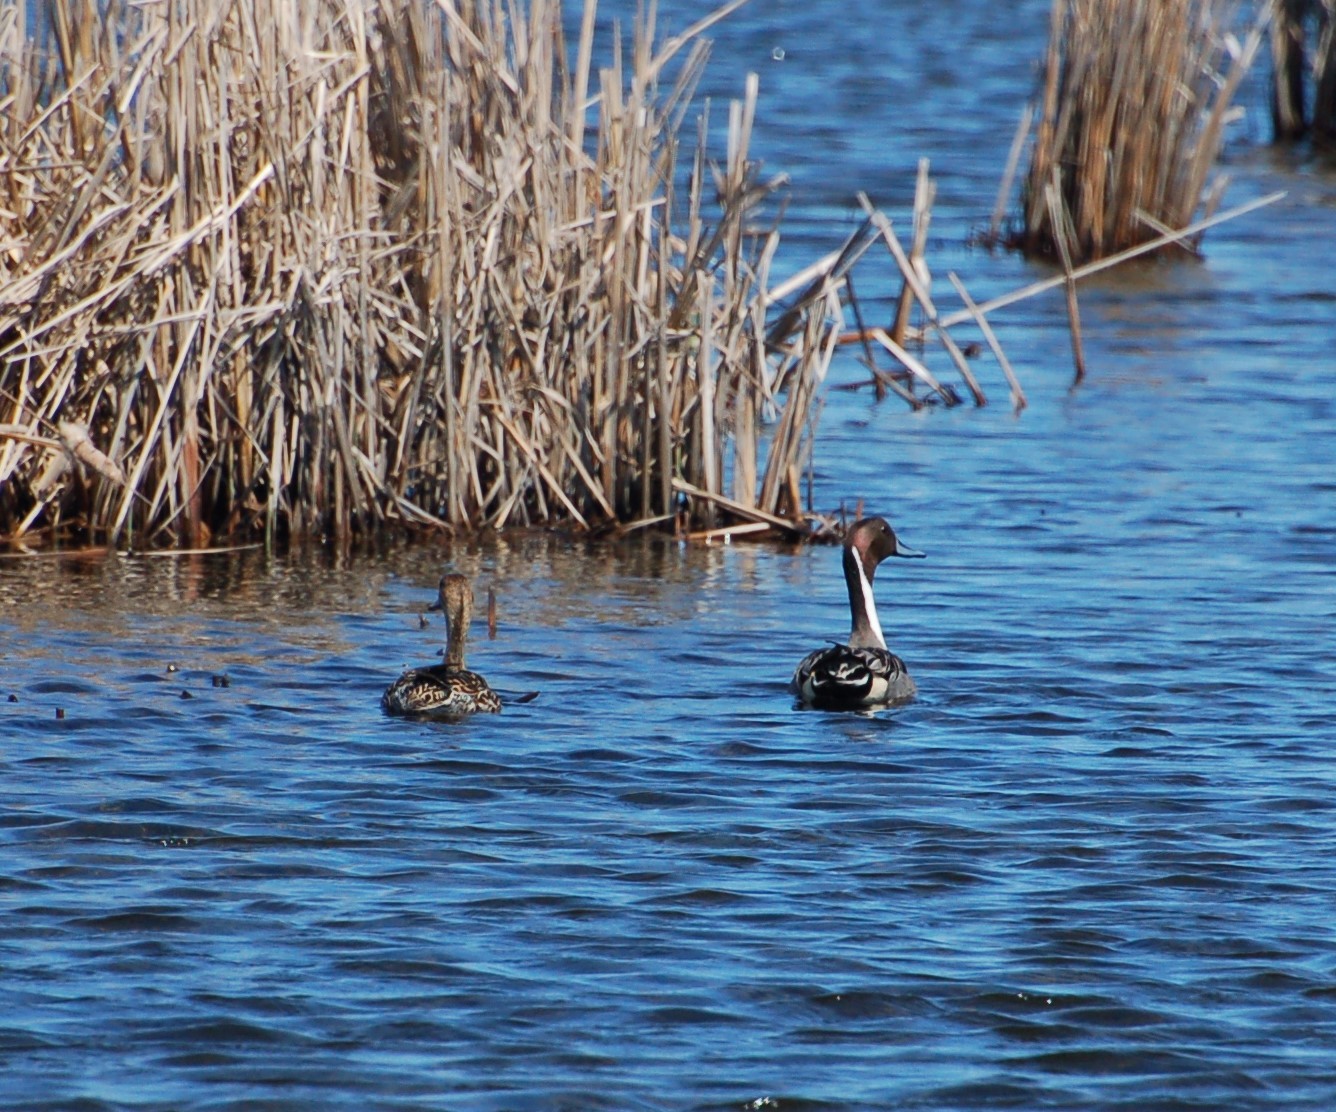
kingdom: Animalia
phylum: Chordata
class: Aves
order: Anseriformes
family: Anatidae
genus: Anas
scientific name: Anas acuta
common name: Northern pintail
